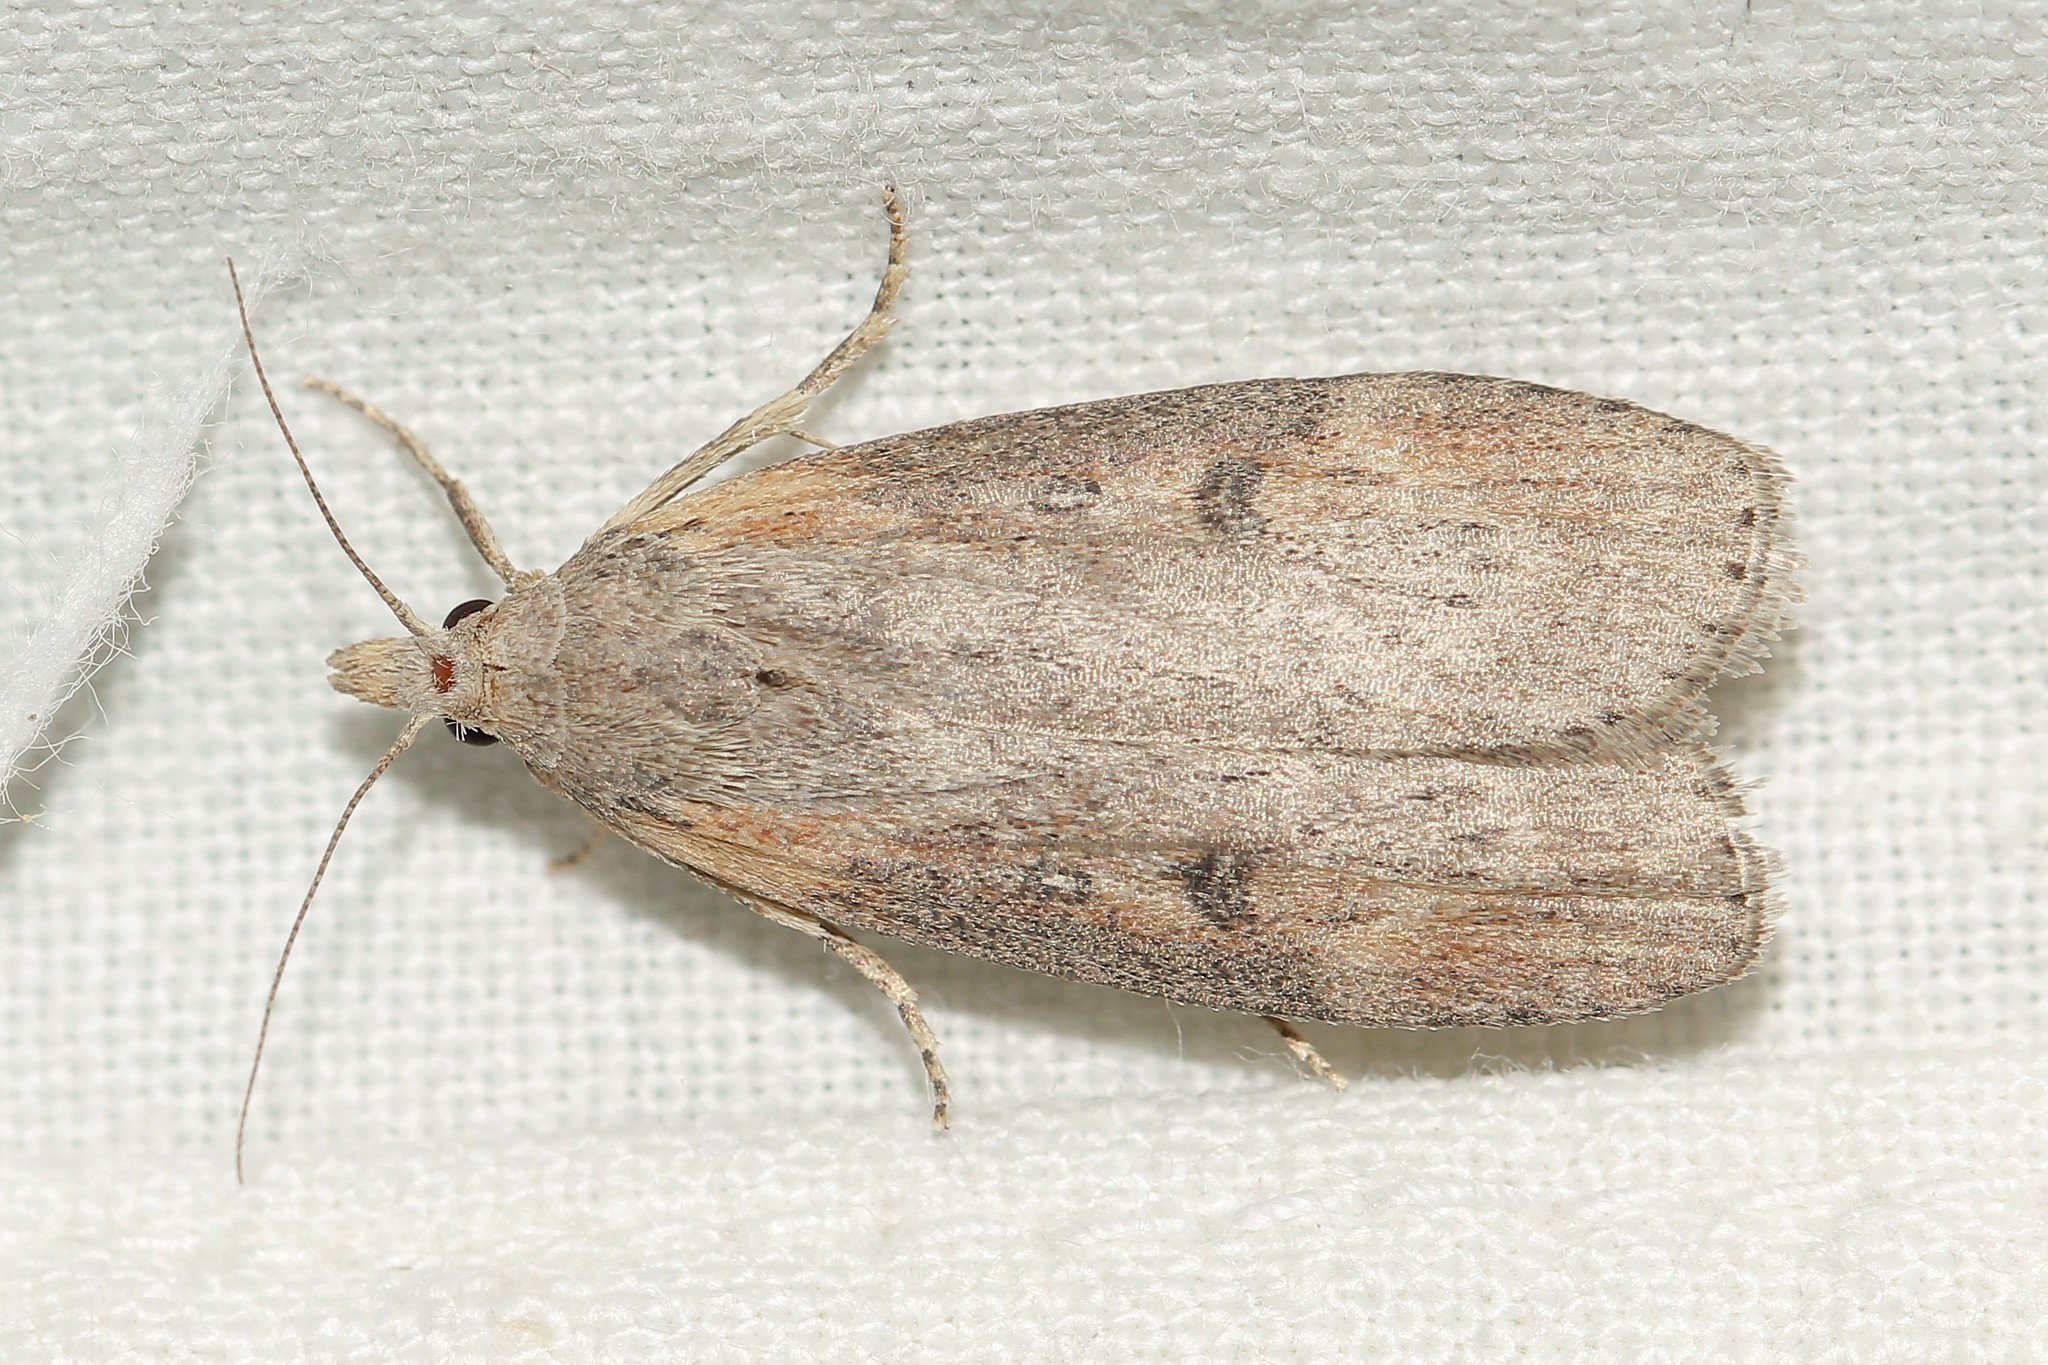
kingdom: Animalia
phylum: Arthropoda
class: Insecta
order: Lepidoptera
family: Pyralidae
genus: Lamoria
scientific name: Lamoria anella
